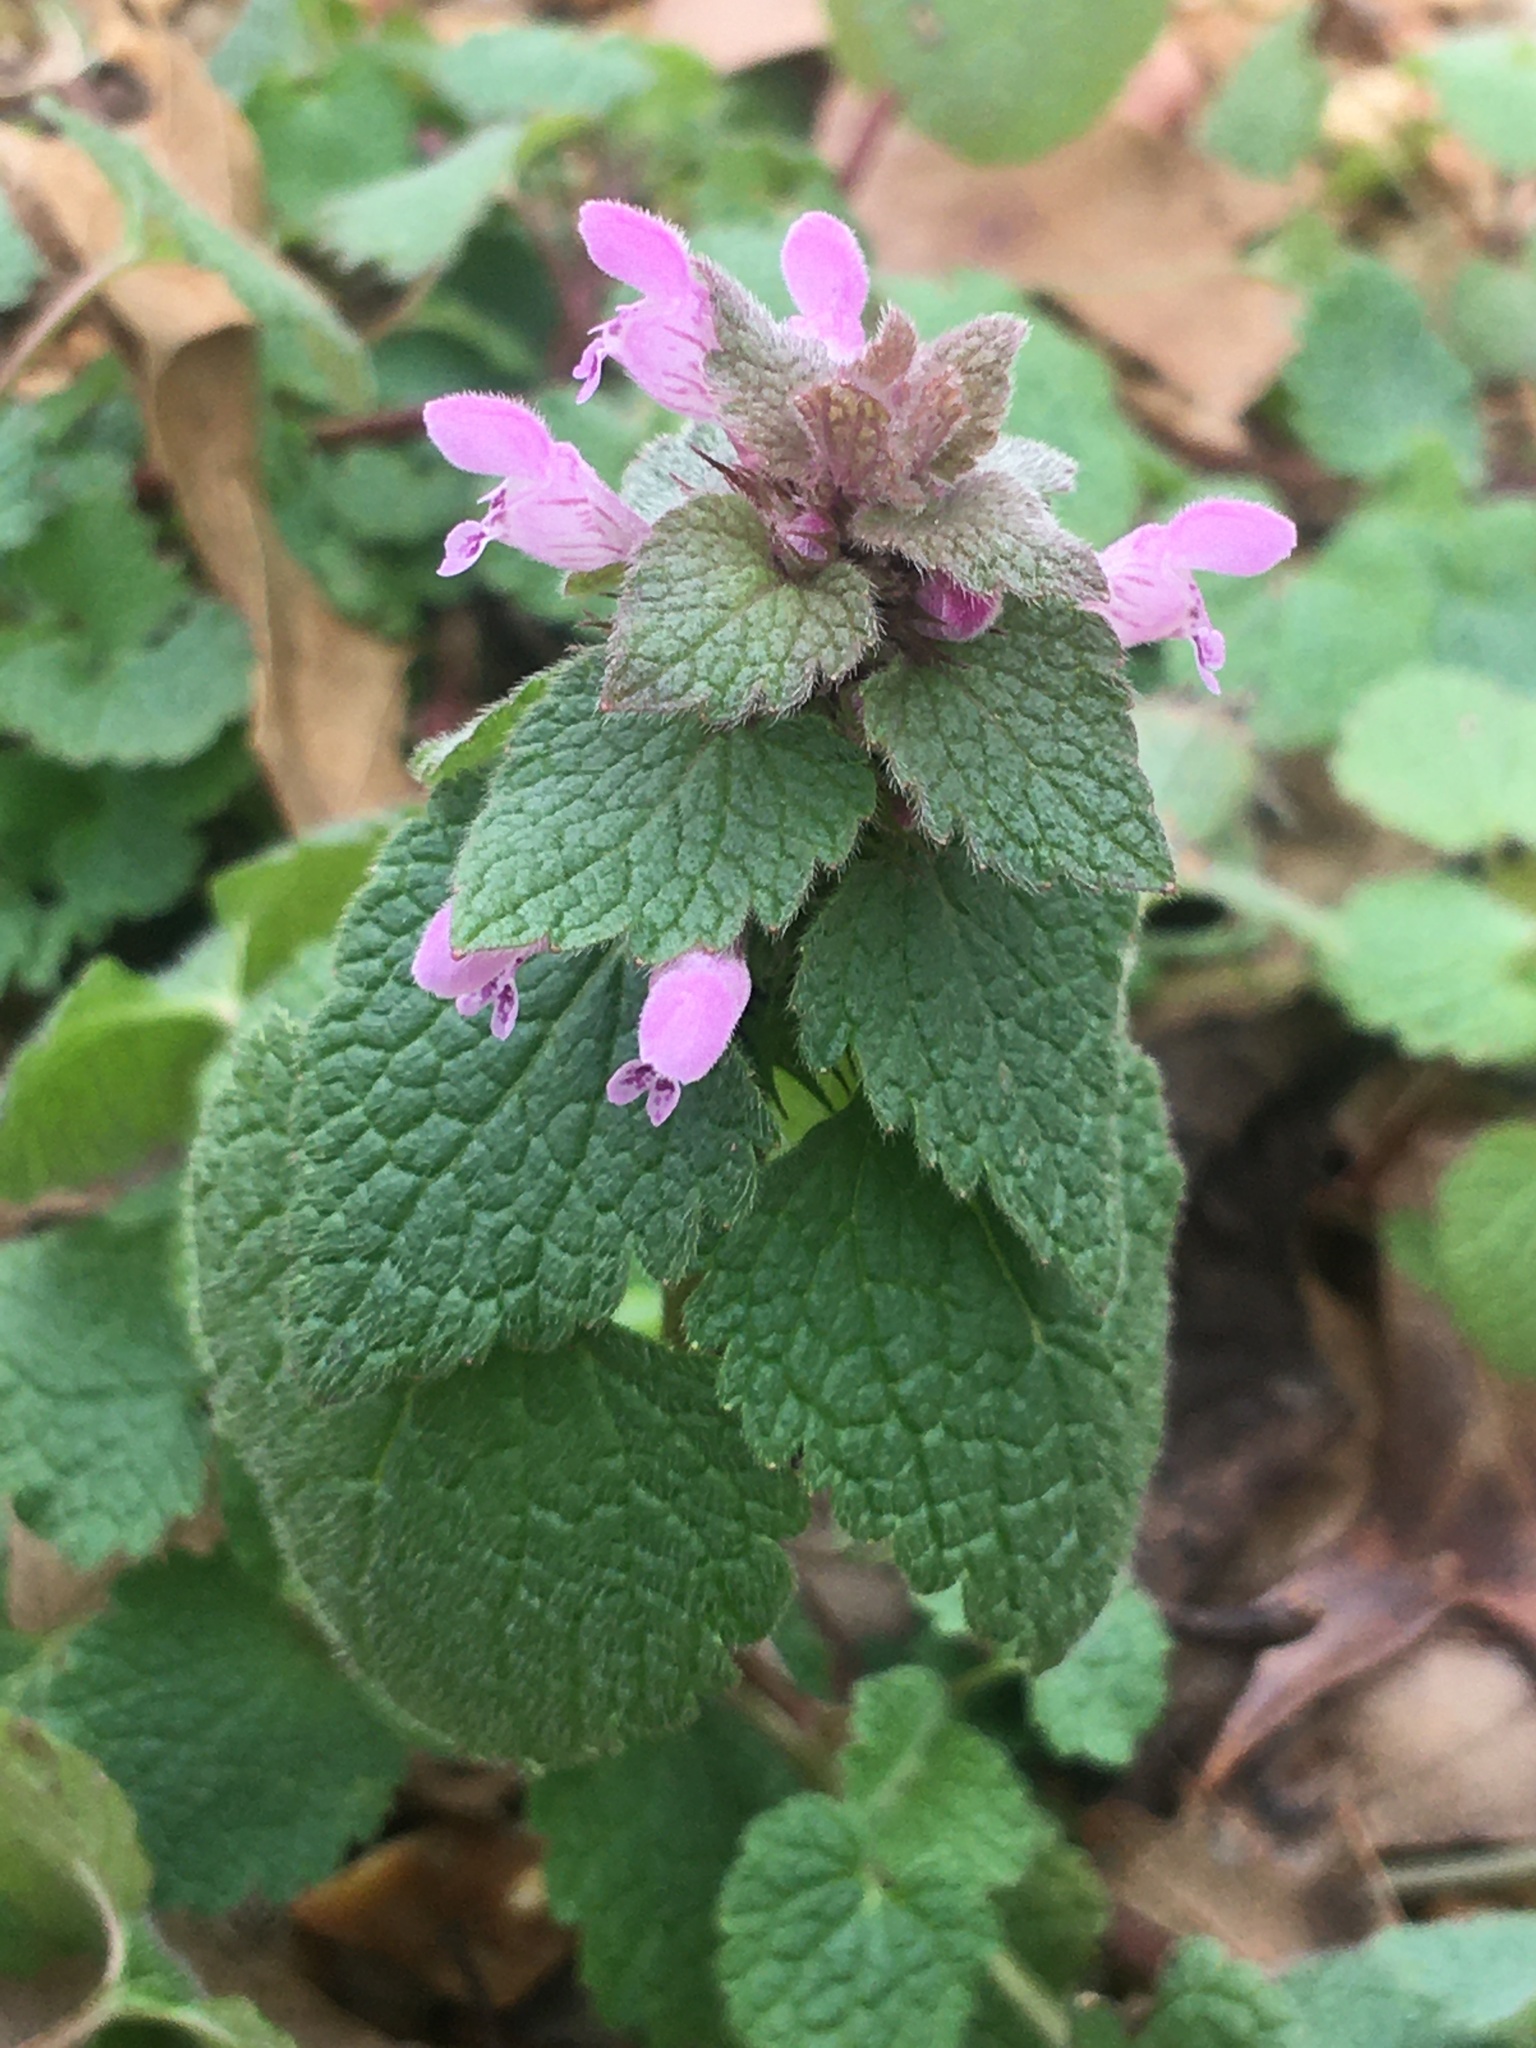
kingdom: Plantae
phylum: Tracheophyta
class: Magnoliopsida
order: Lamiales
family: Lamiaceae
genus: Lamium
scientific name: Lamium purpureum
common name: Red dead-nettle
